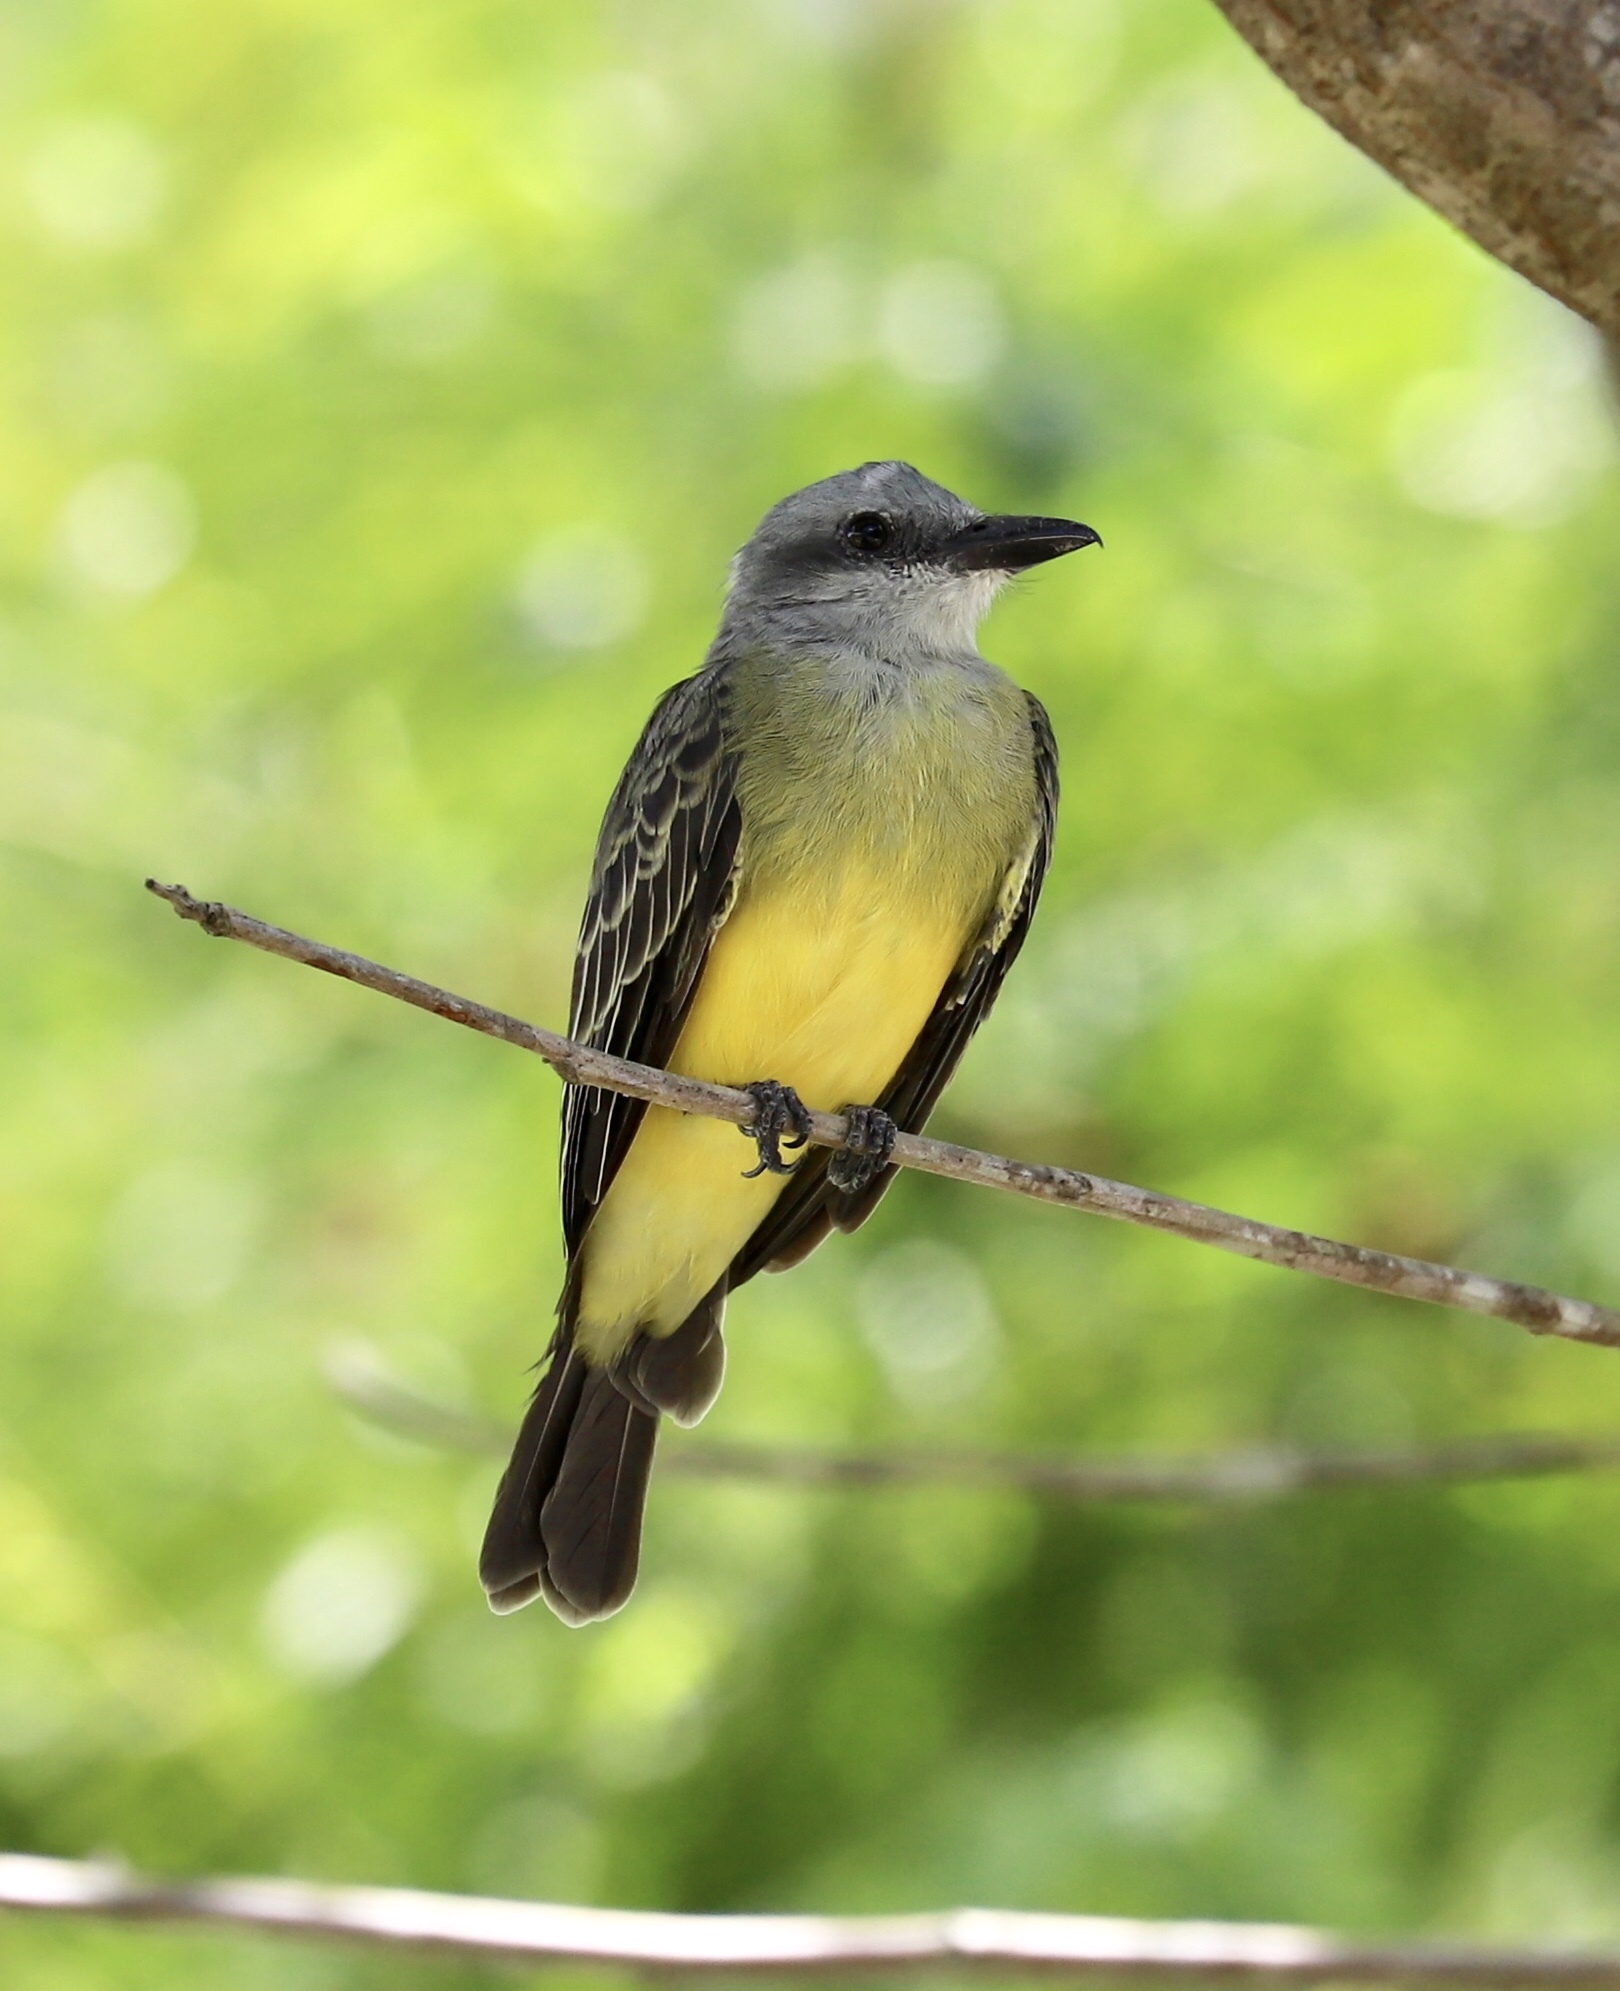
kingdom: Animalia
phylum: Chordata
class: Aves
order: Passeriformes
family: Tyrannidae
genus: Tyrannus
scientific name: Tyrannus melancholicus
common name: Tropical kingbird
